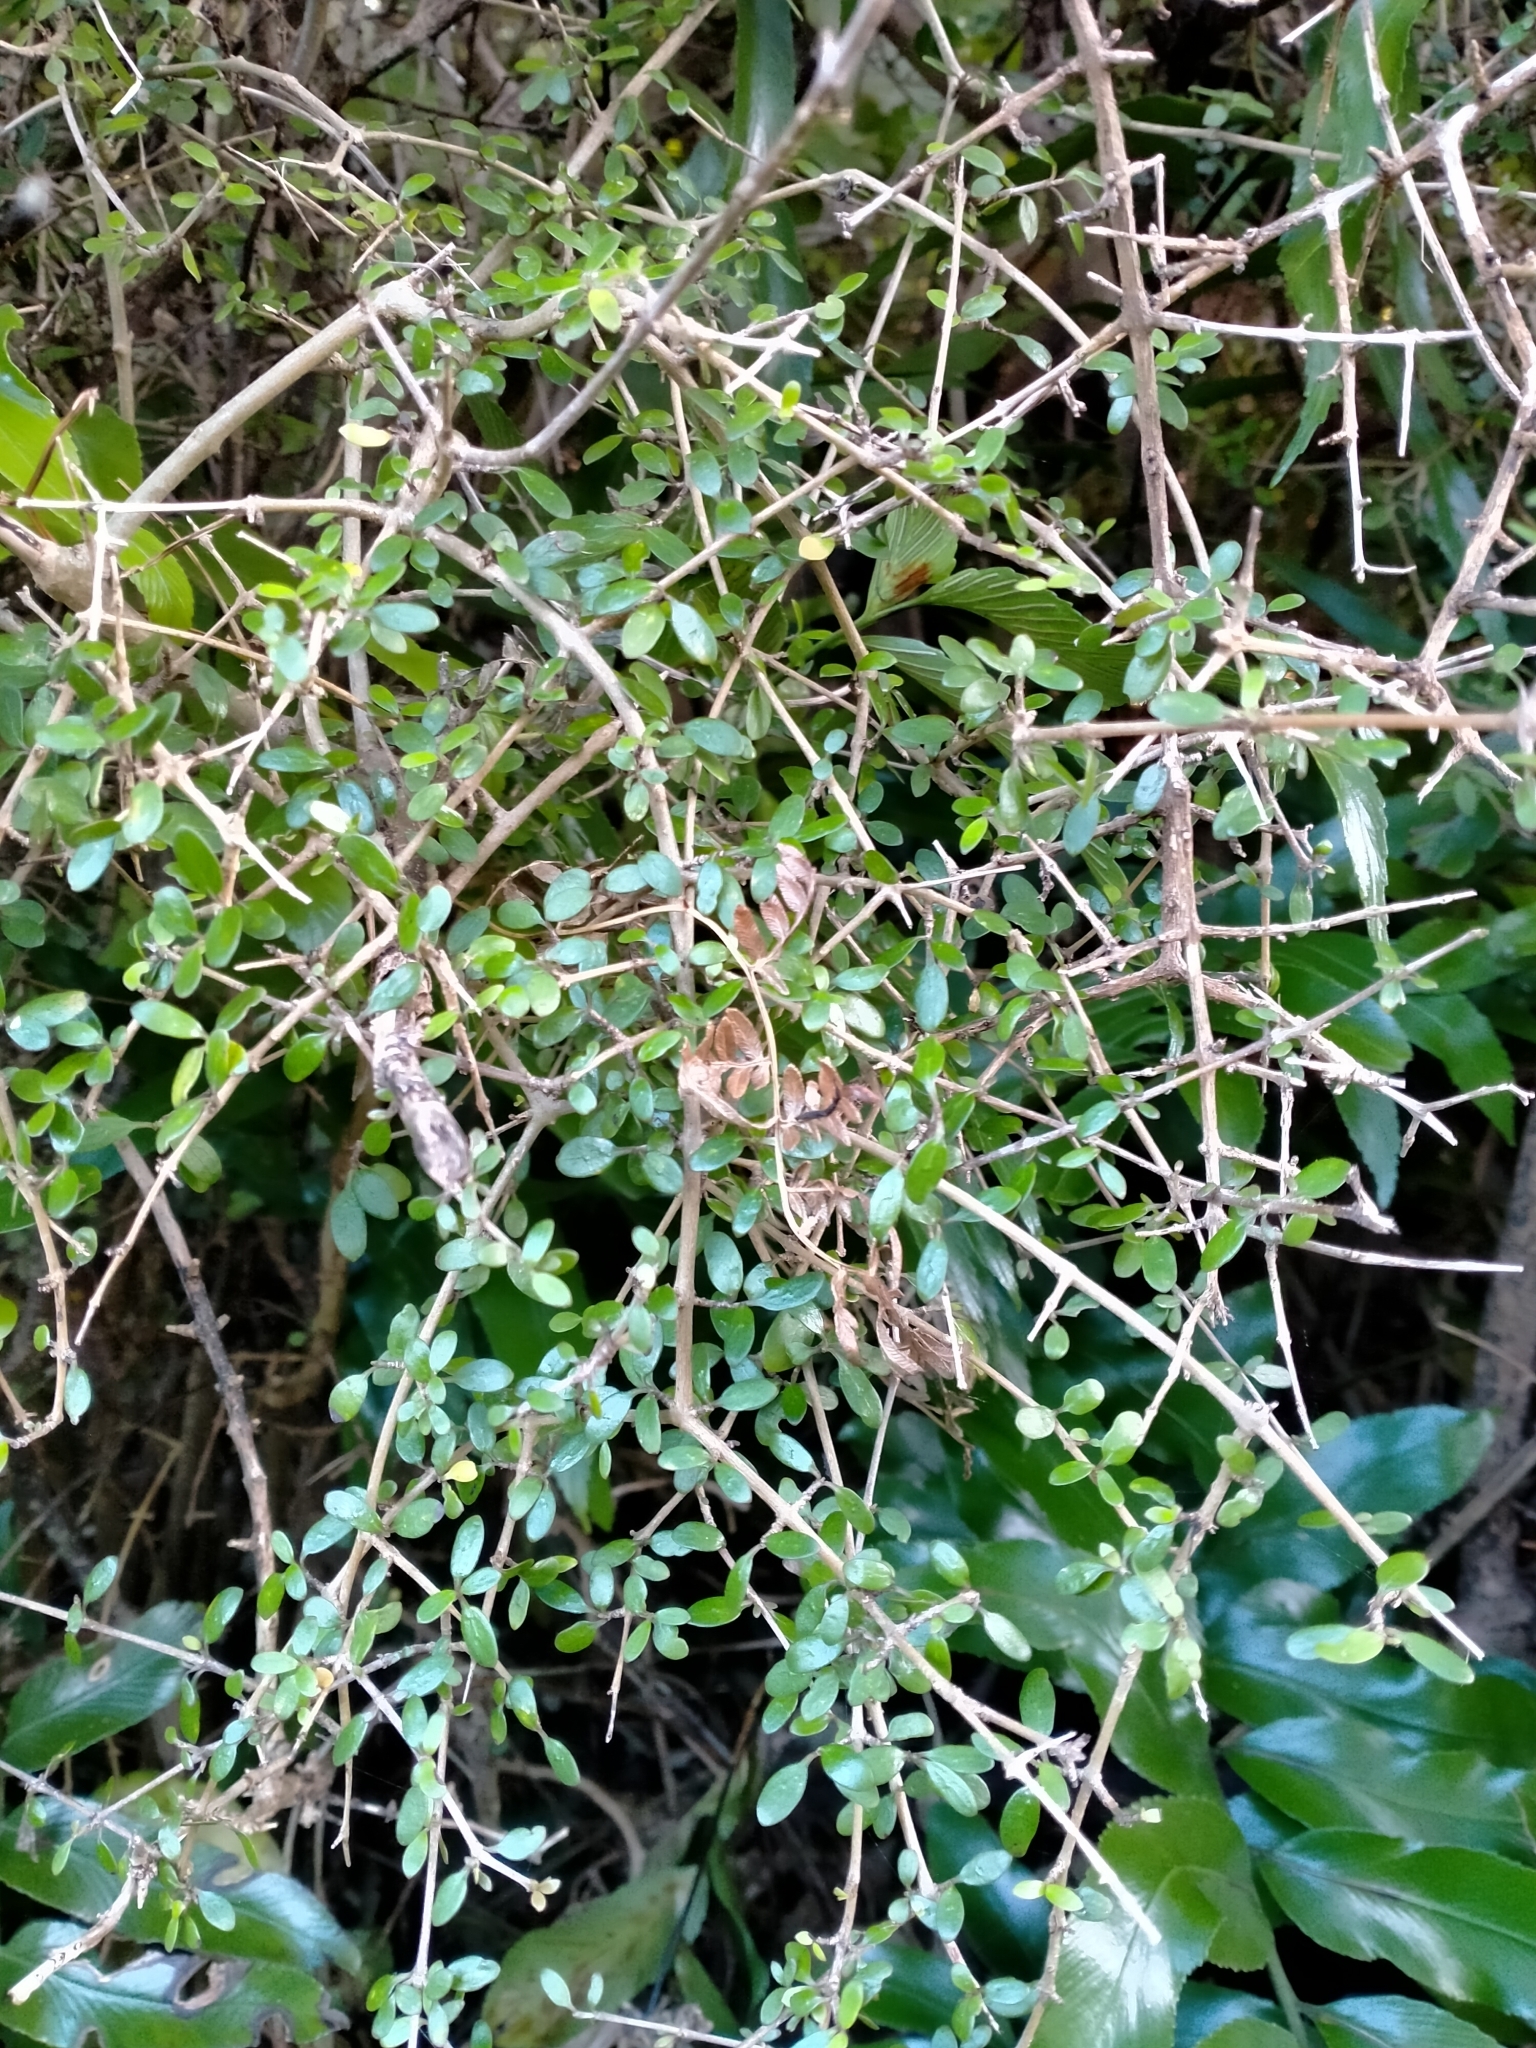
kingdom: Plantae
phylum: Tracheophyta
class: Magnoliopsida
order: Gentianales
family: Rubiaceae
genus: Coprosma
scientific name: Coprosma propinqua
